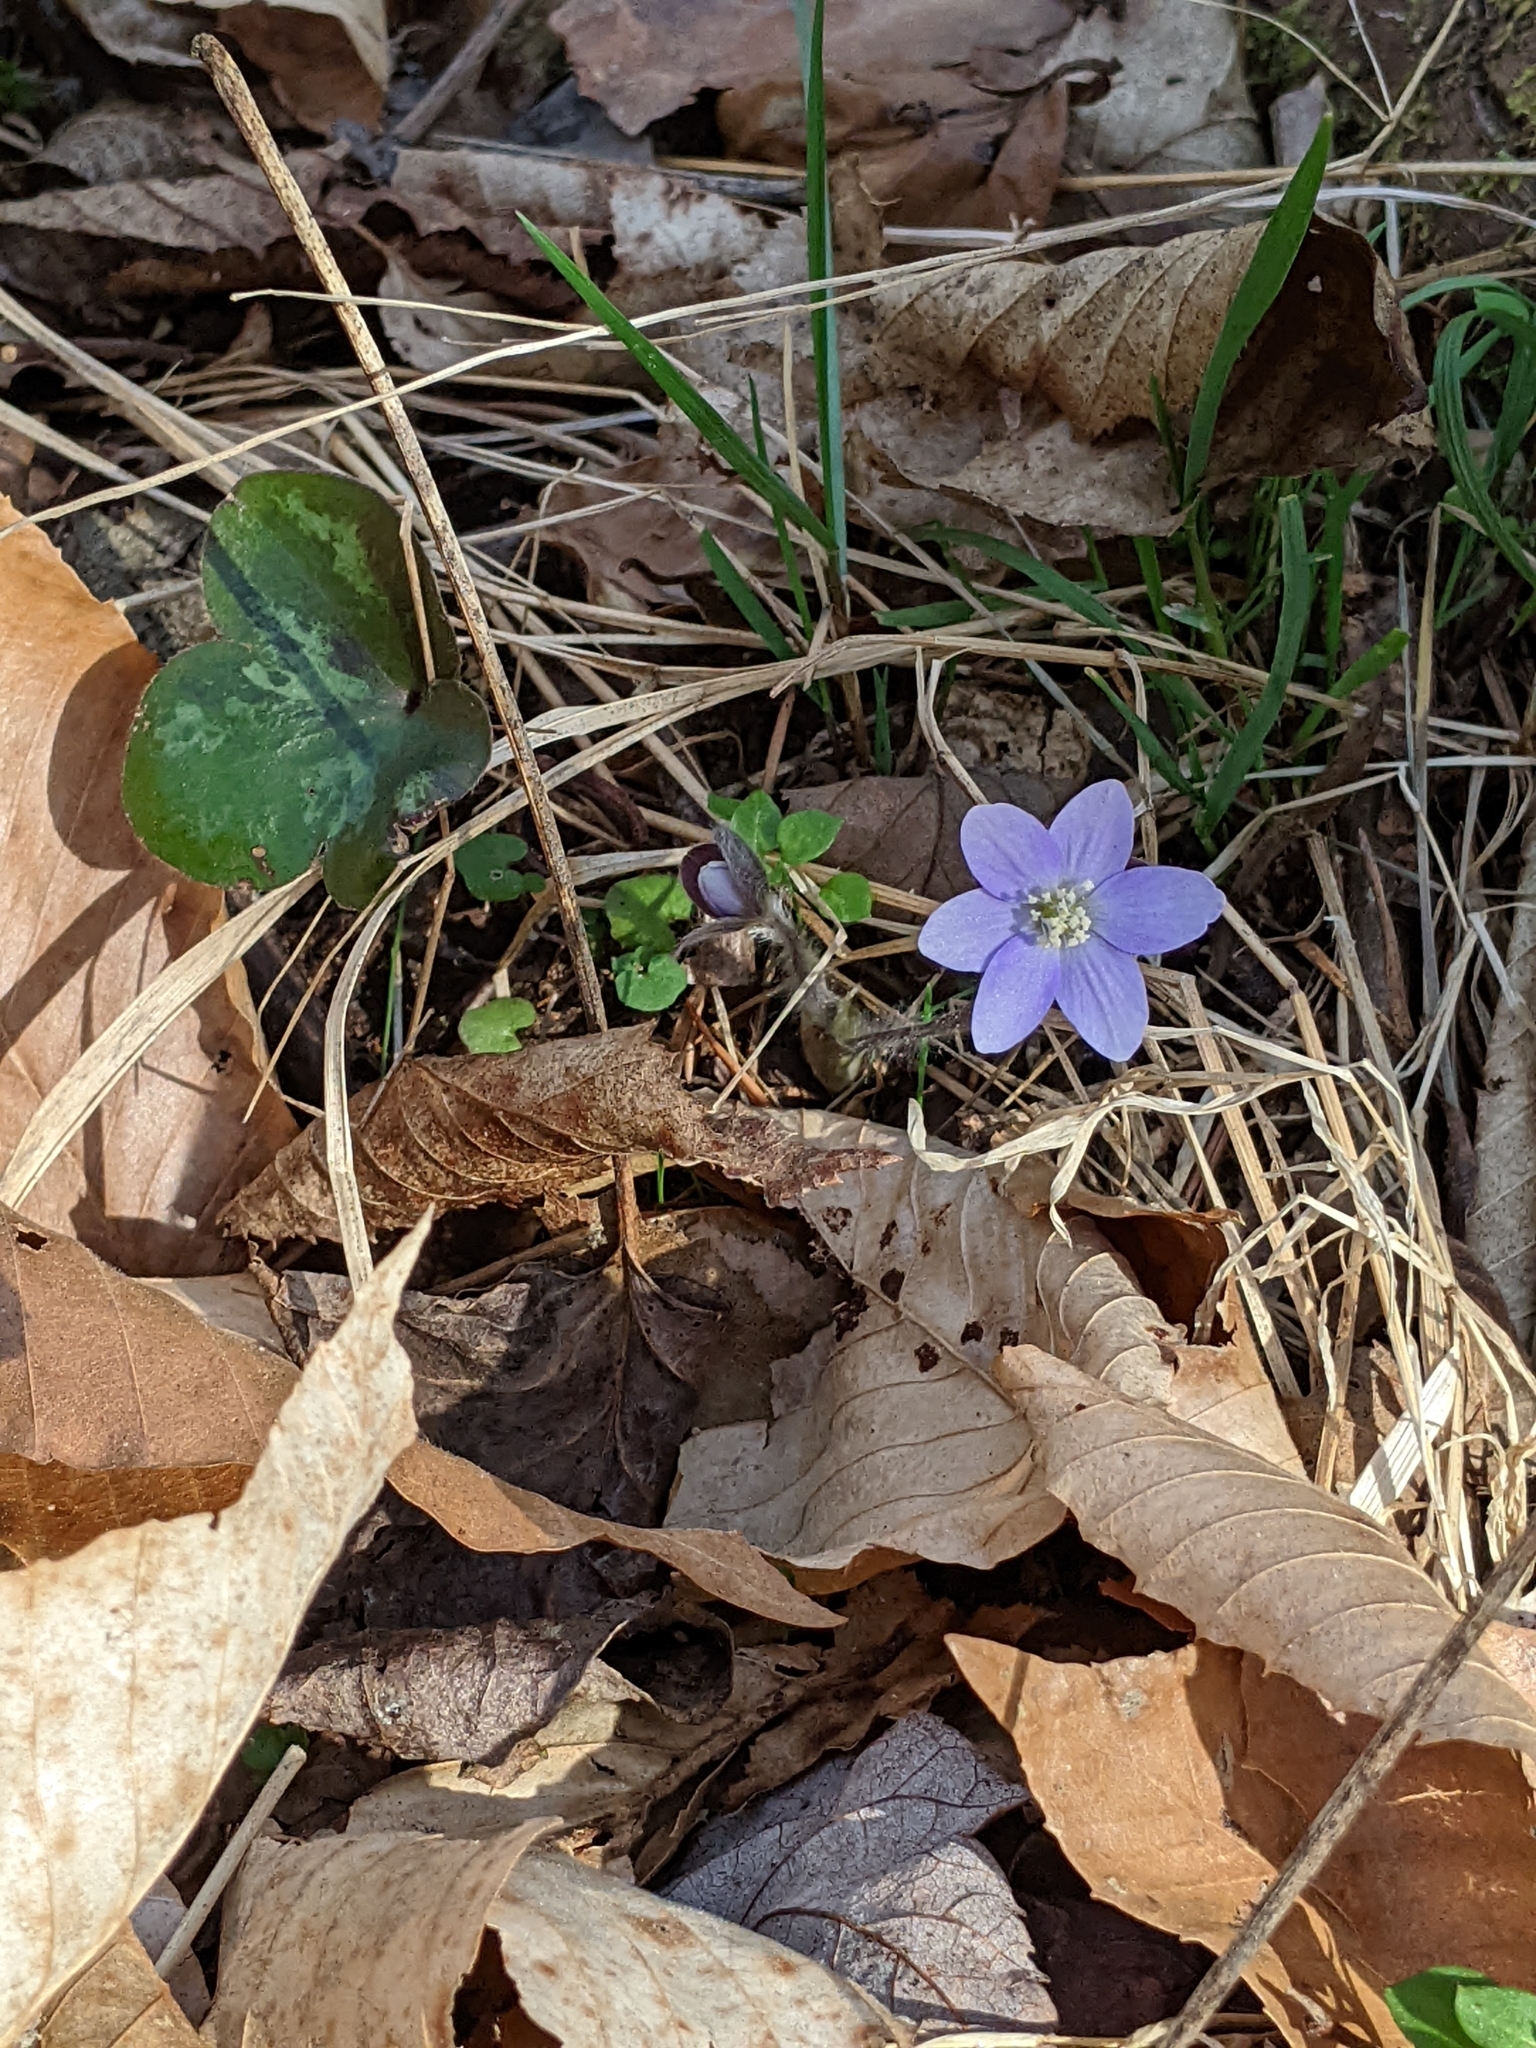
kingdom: Plantae
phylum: Tracheophyta
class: Magnoliopsida
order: Ranunculales
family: Ranunculaceae
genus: Hepatica
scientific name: Hepatica americana
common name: American hepatica
